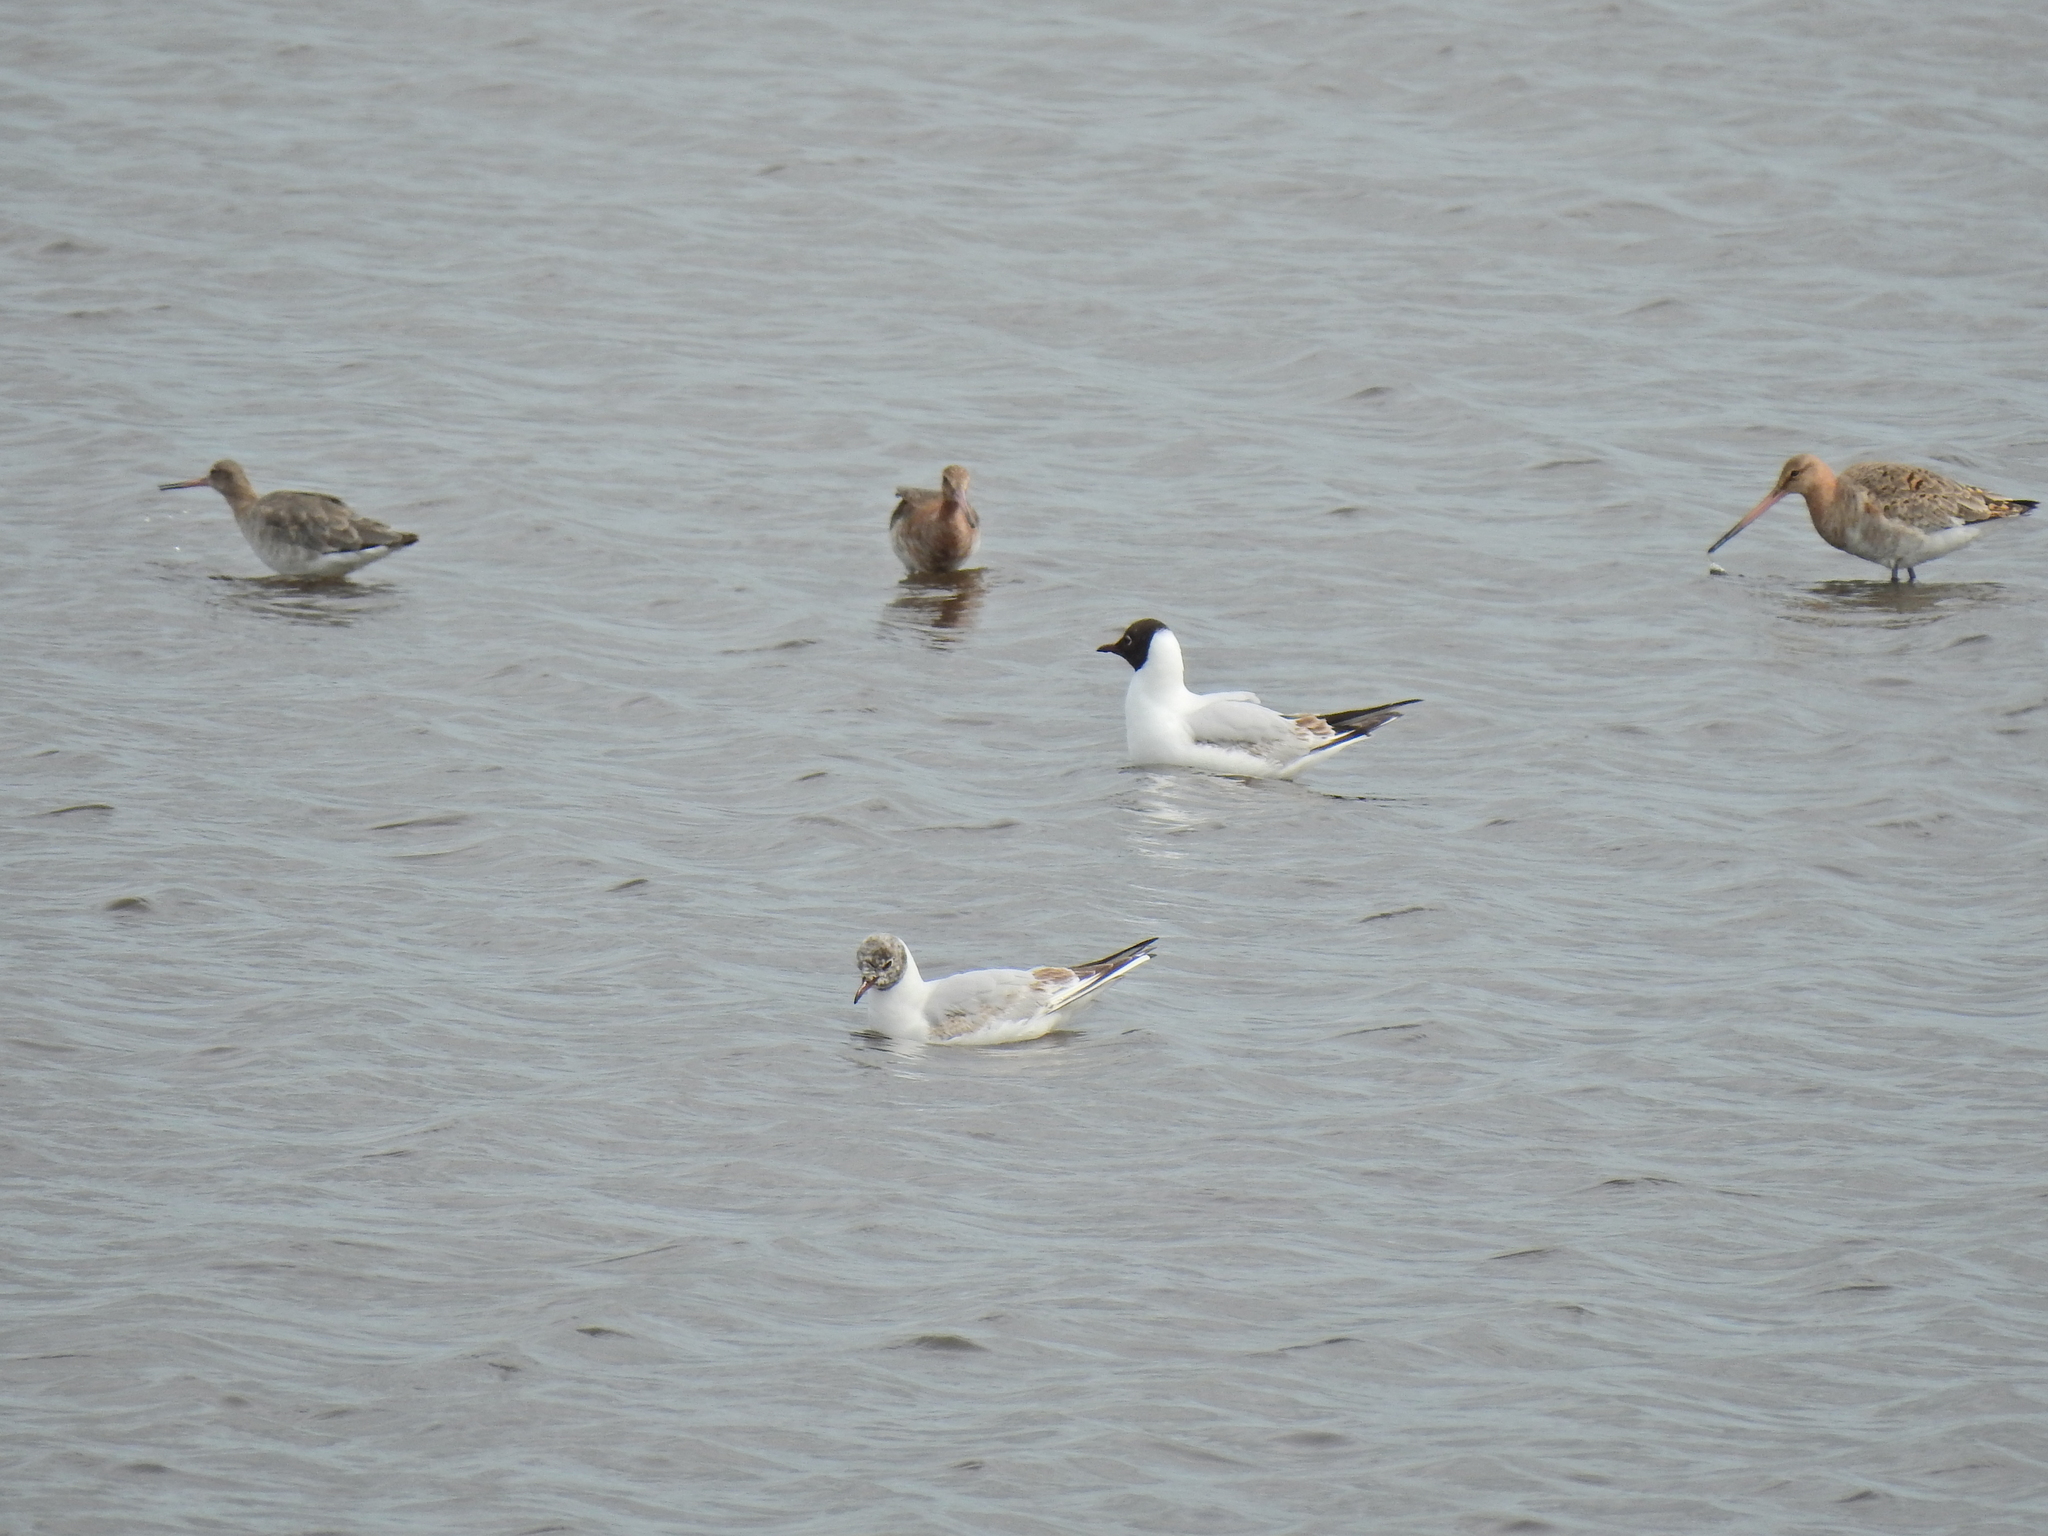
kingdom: Animalia
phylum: Chordata
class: Aves
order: Charadriiformes
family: Laridae
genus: Chroicocephalus
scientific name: Chroicocephalus ridibundus
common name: Black-headed gull
